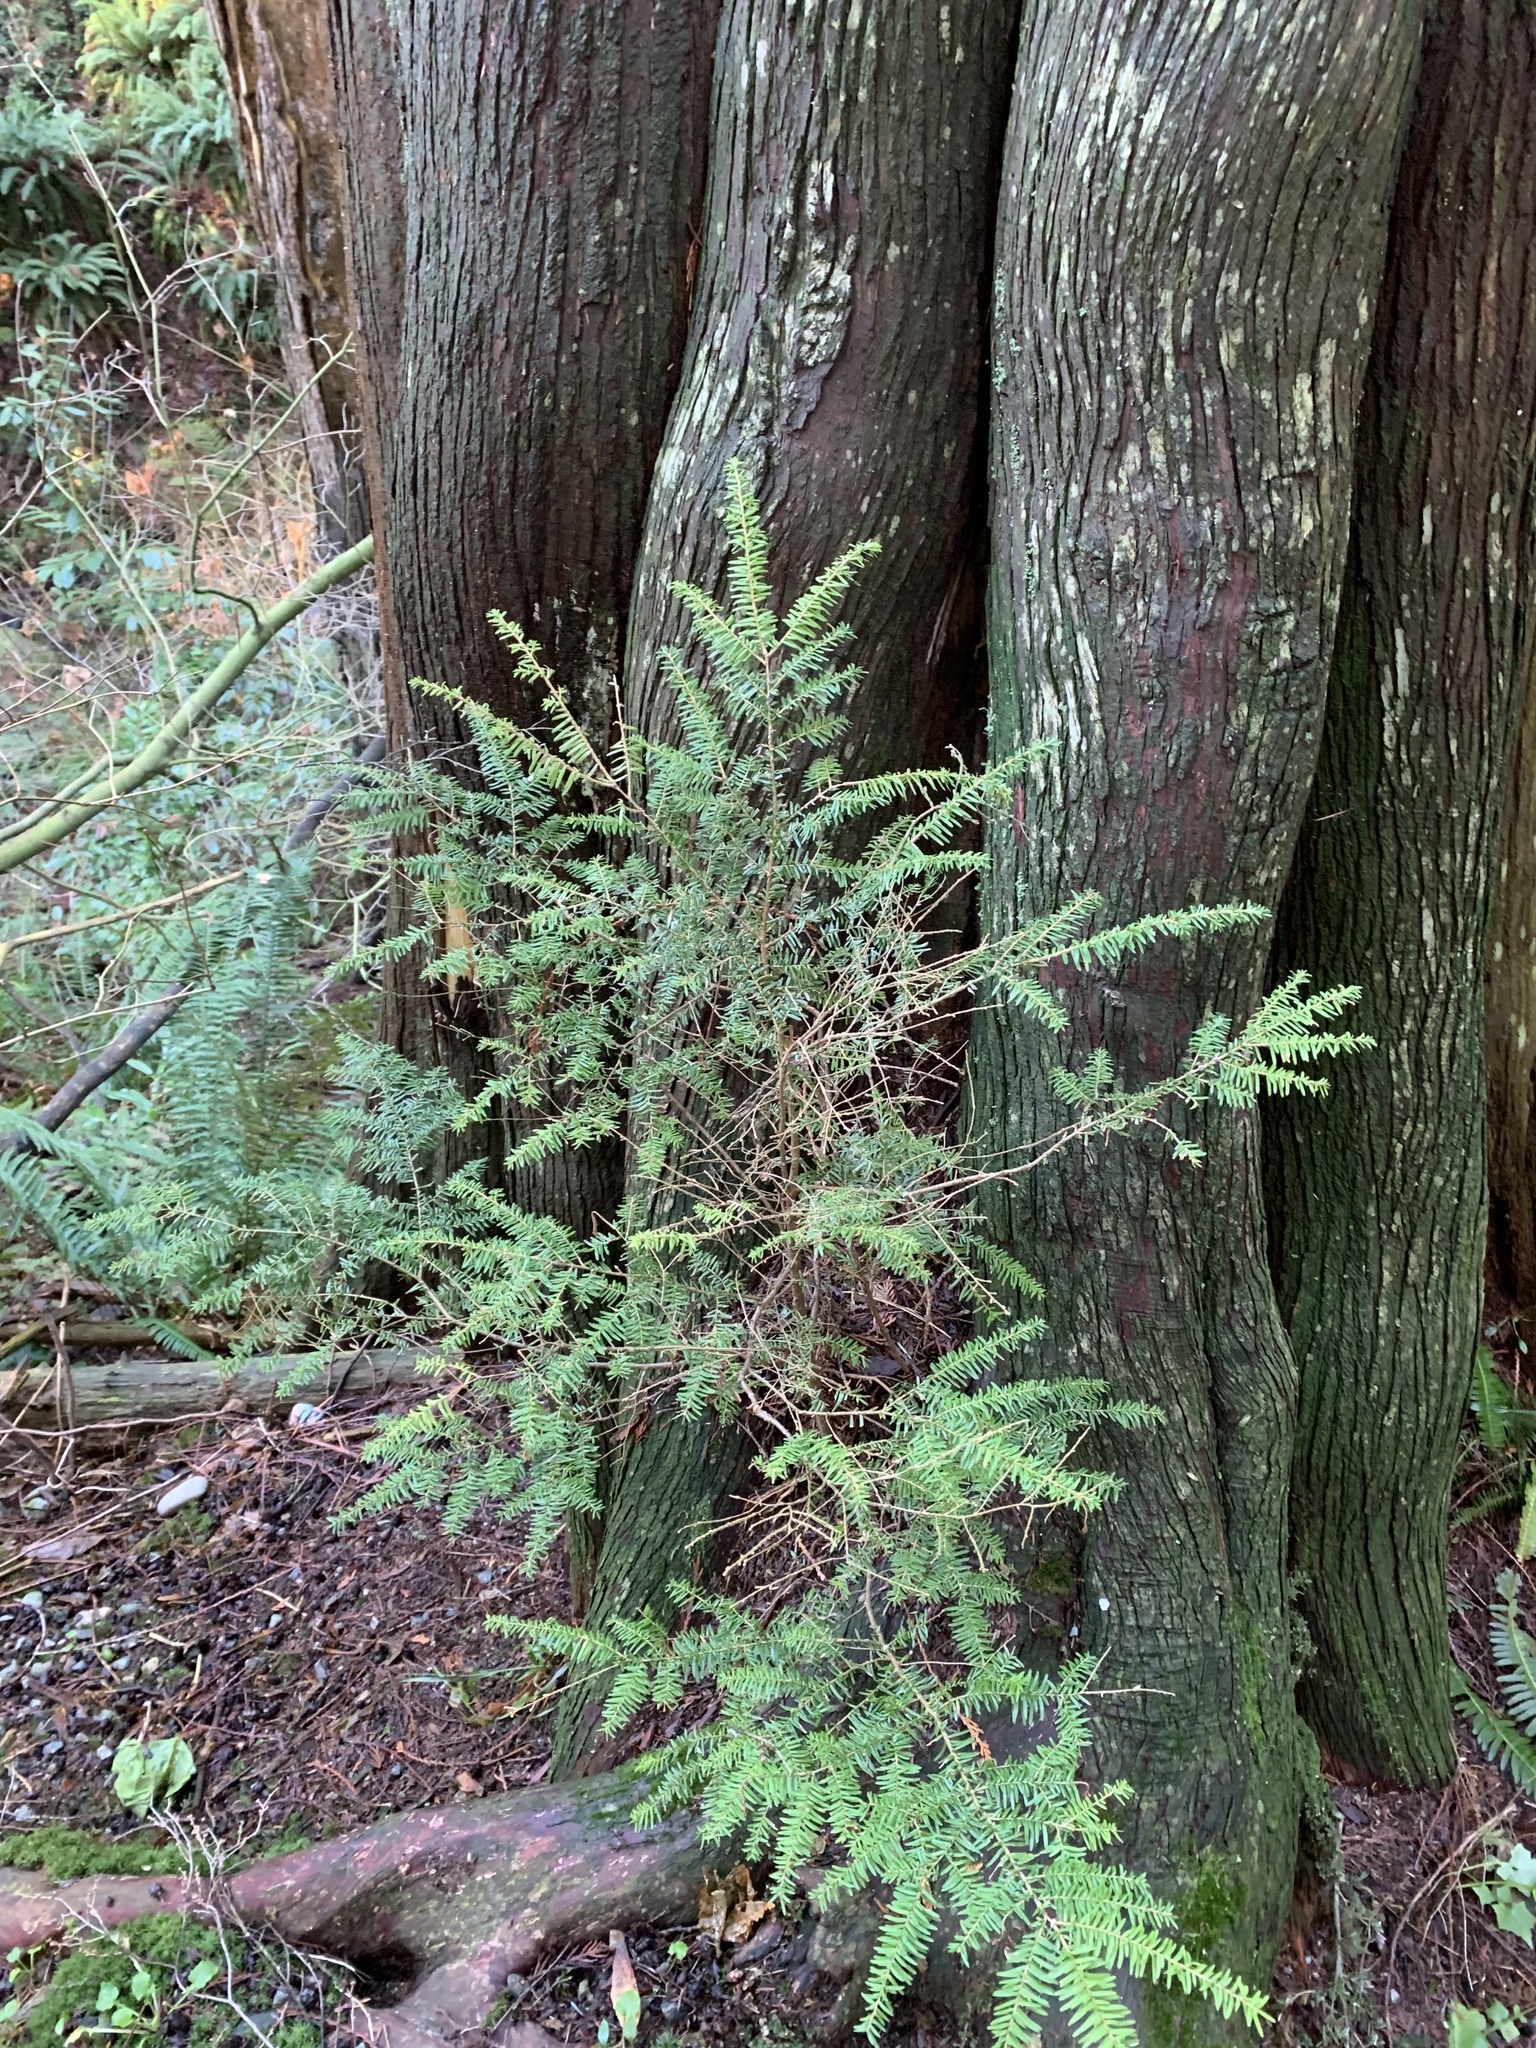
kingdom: Plantae
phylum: Tracheophyta
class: Pinopsida
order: Pinales
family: Pinaceae
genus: Tsuga
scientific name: Tsuga heterophylla
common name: Western hemlock
